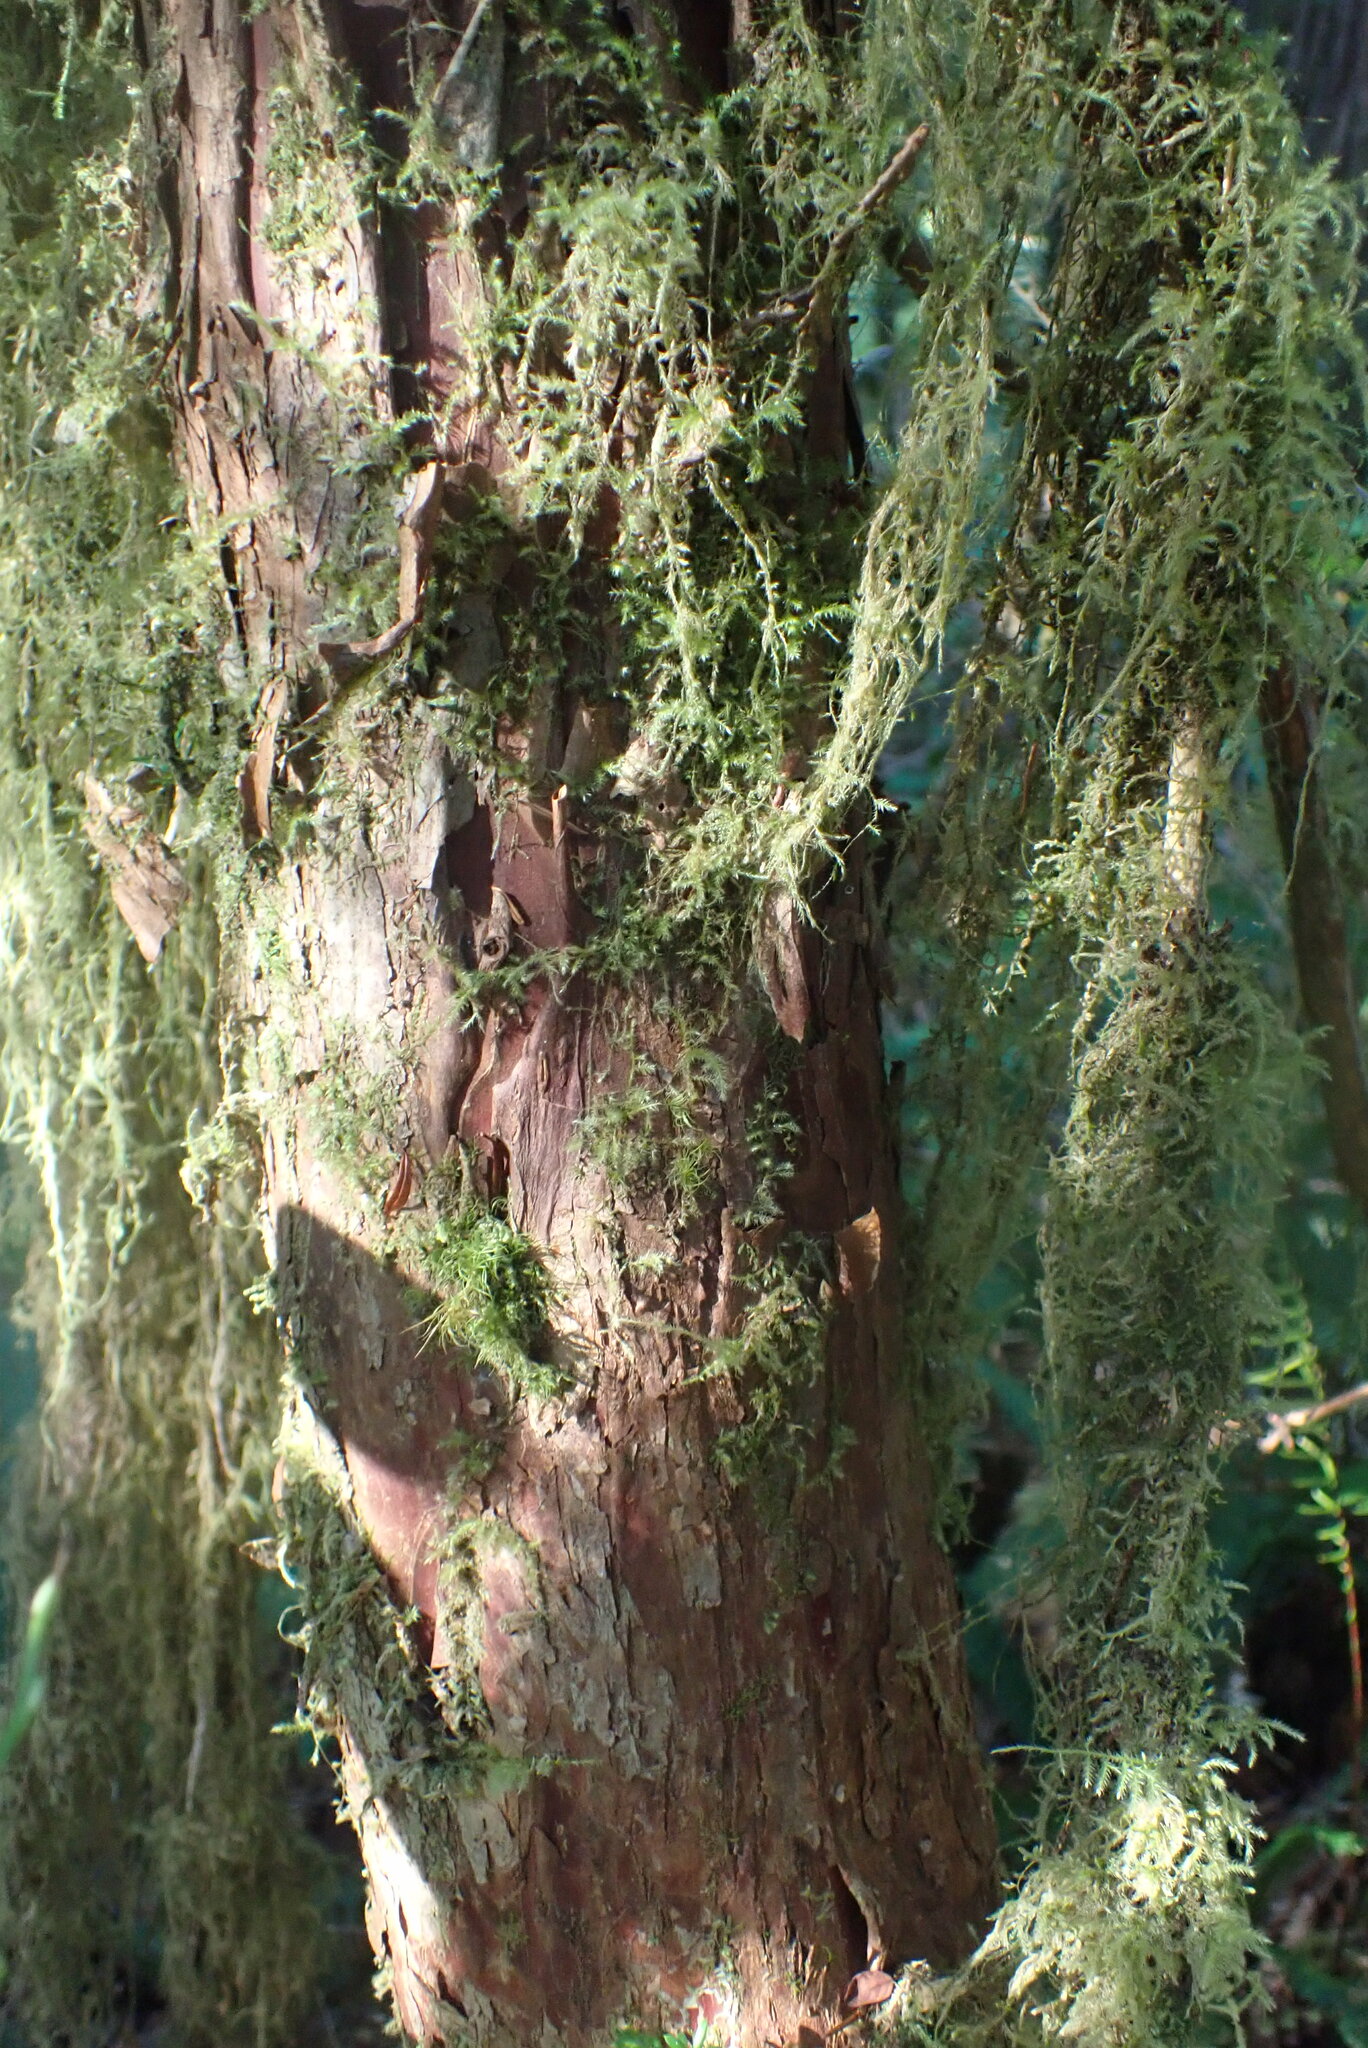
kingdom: Plantae
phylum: Tracheophyta
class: Pinopsida
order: Pinales
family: Taxaceae
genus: Taxus
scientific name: Taxus brevifolia
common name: Pacific yew
